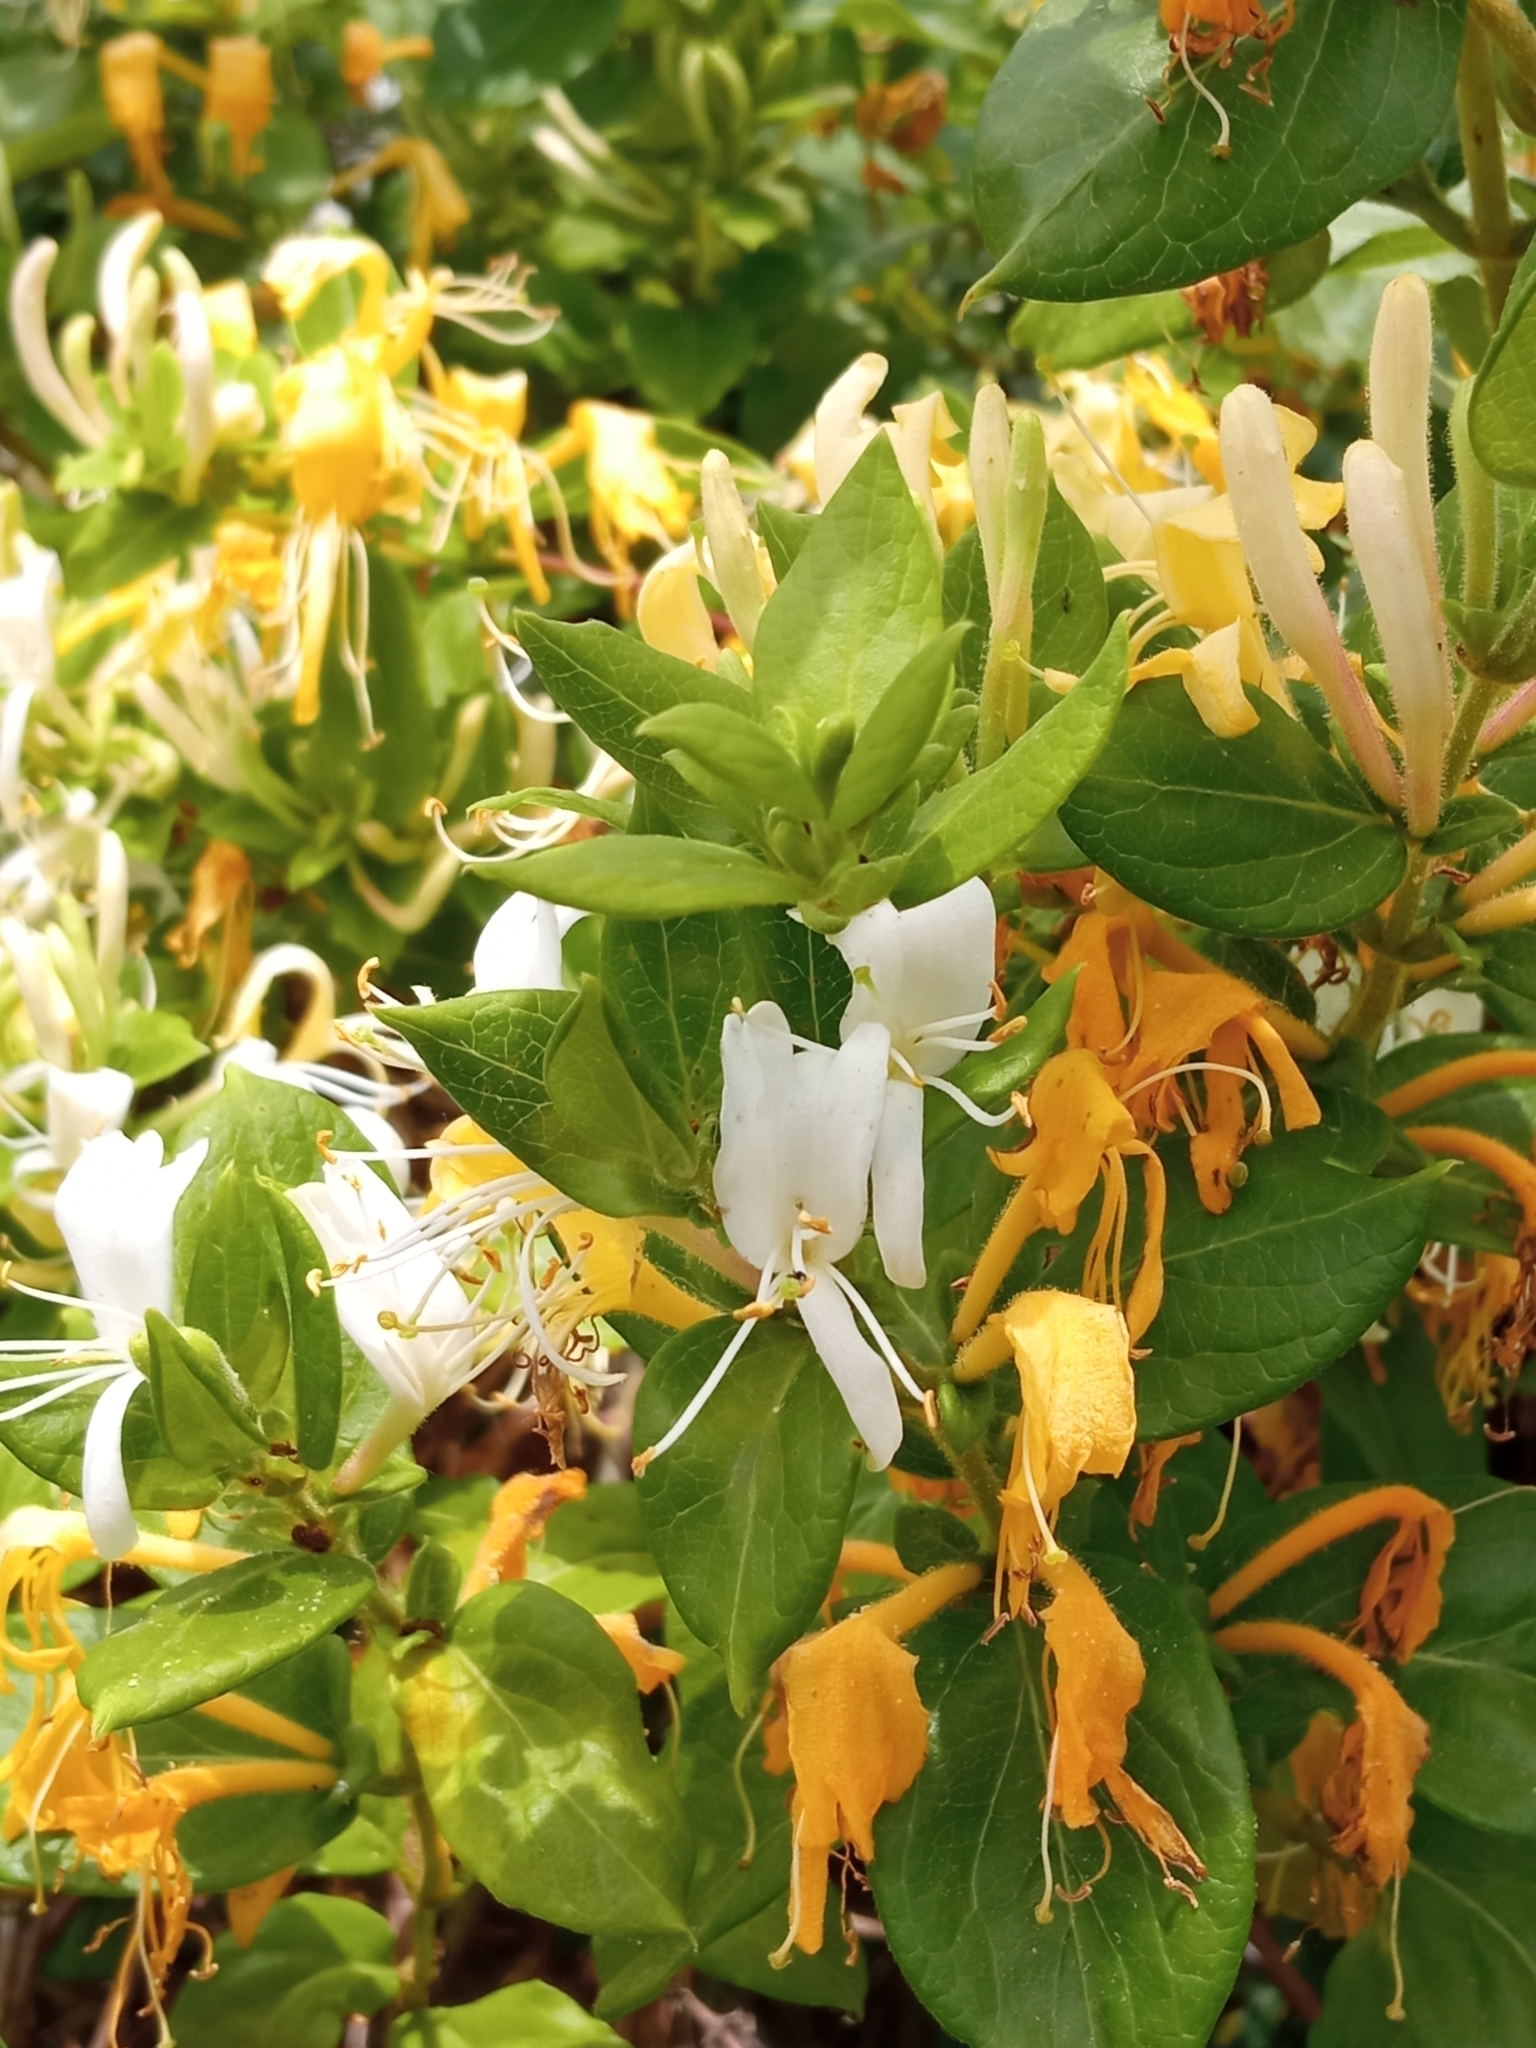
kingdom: Plantae
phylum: Tracheophyta
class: Magnoliopsida
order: Dipsacales
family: Caprifoliaceae
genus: Lonicera
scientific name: Lonicera japonica
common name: Japanese honeysuckle
